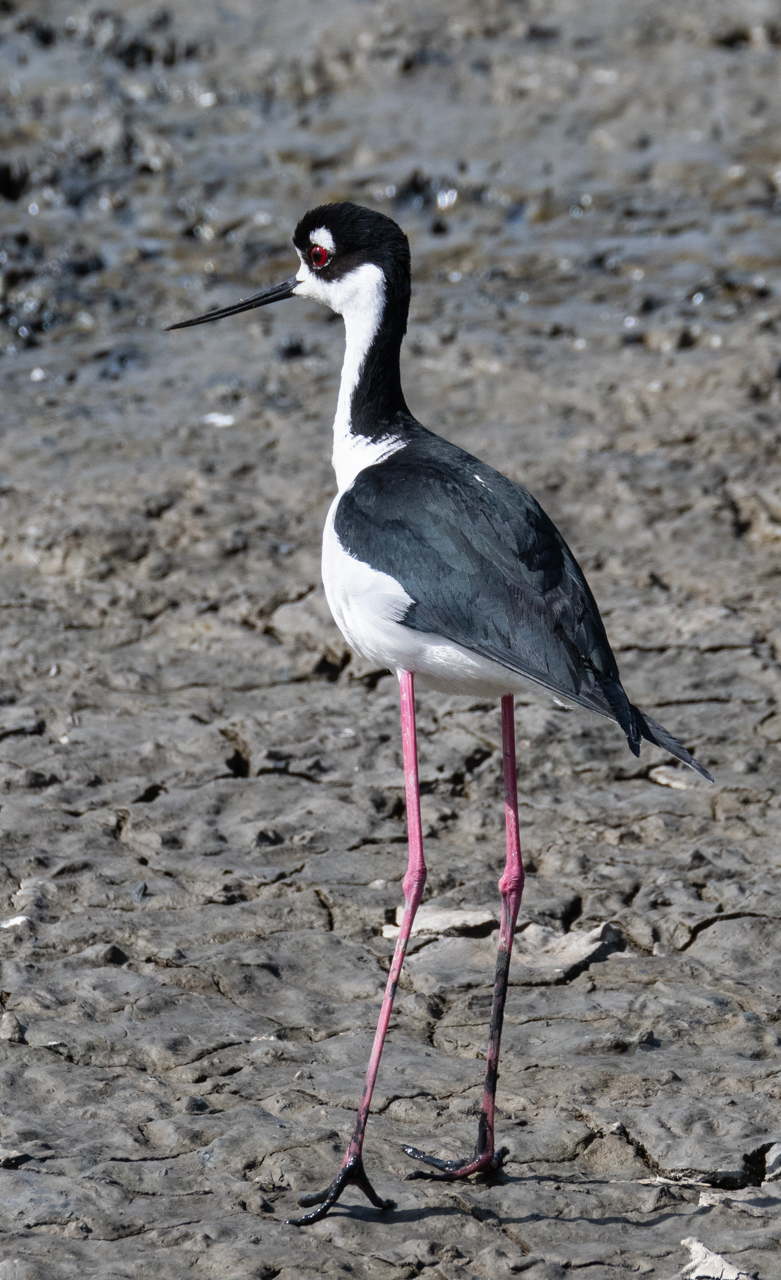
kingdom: Animalia
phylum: Chordata
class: Aves
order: Charadriiformes
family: Recurvirostridae
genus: Himantopus
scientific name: Himantopus mexicanus
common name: Black-necked stilt
